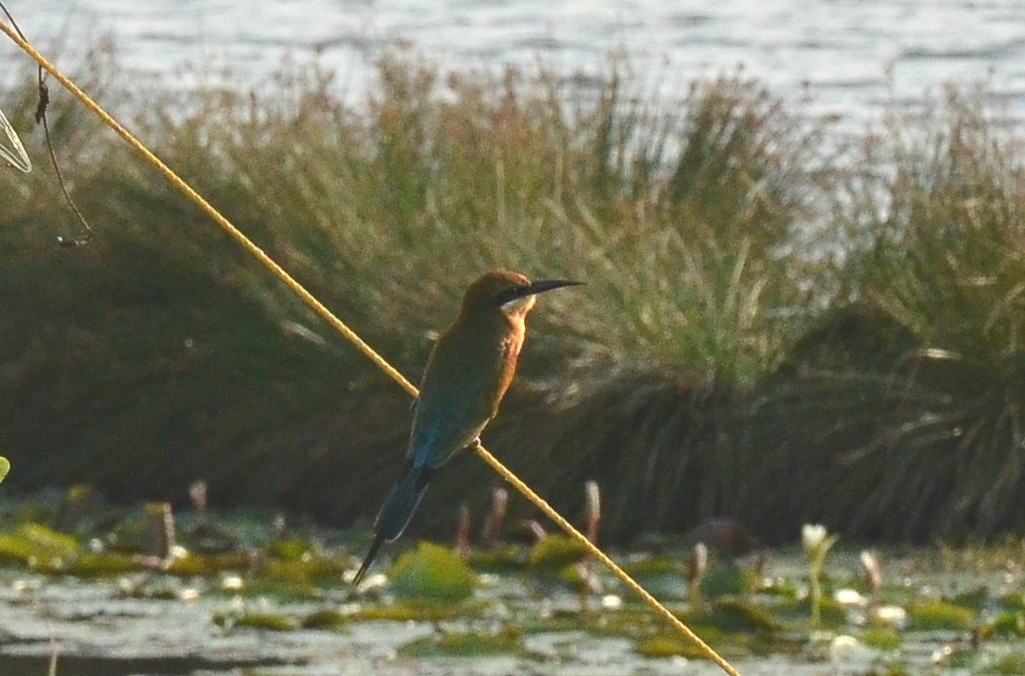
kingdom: Animalia
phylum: Chordata
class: Aves
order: Coraciiformes
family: Meropidae
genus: Merops
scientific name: Merops philippinus
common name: Blue-tailed bee-eater
